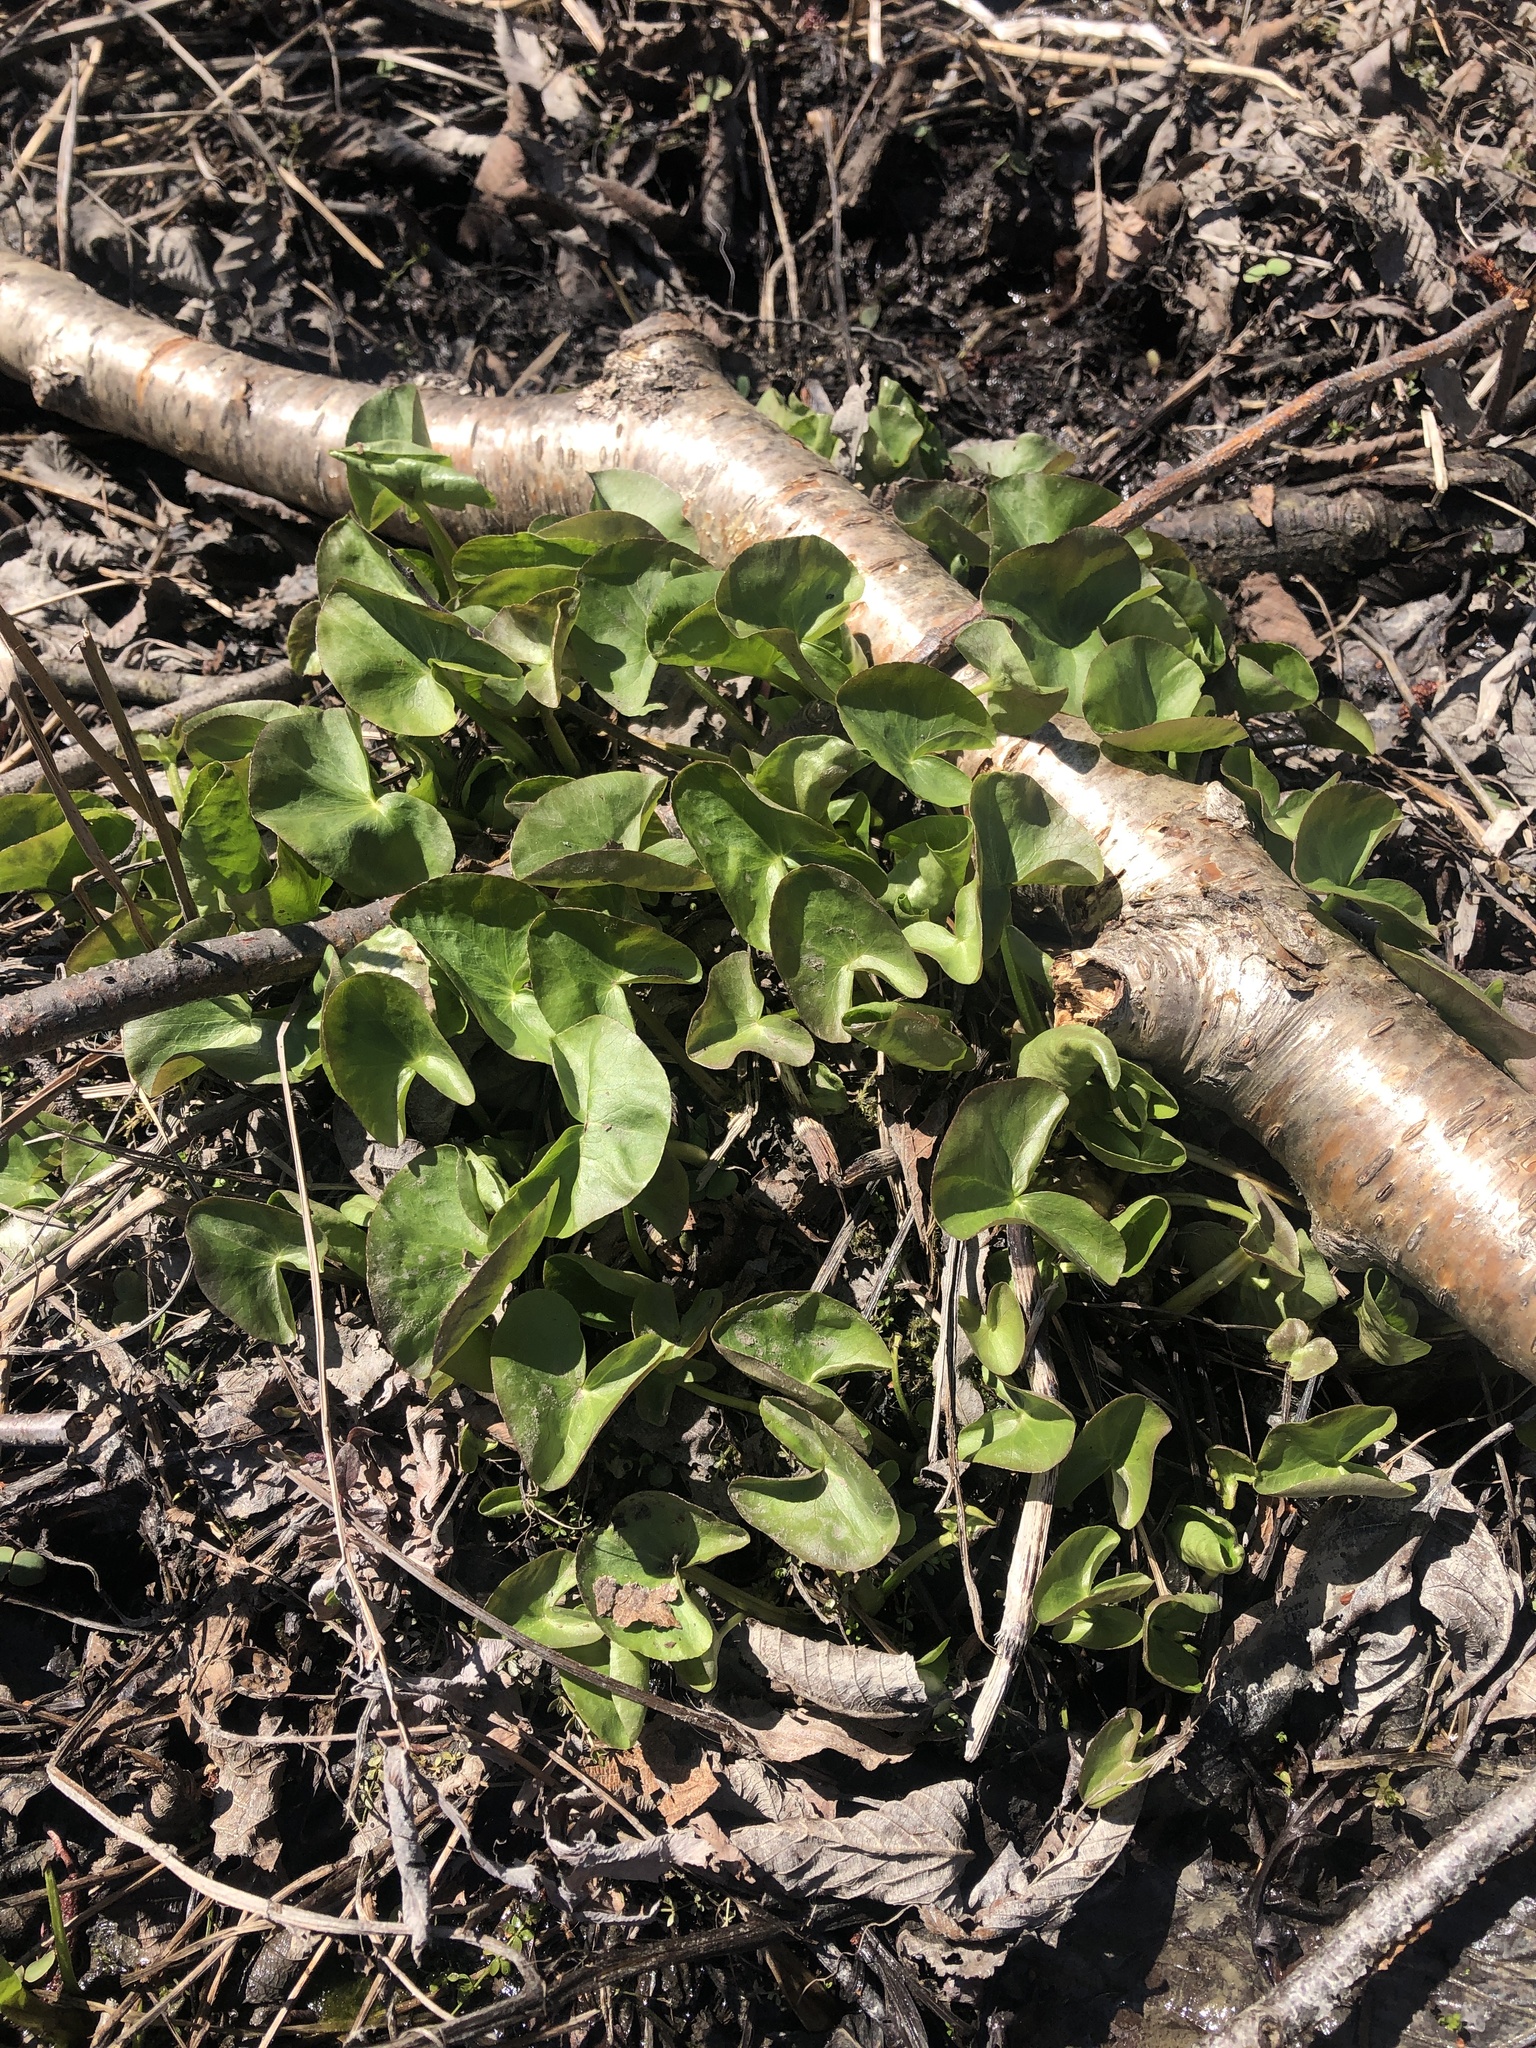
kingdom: Plantae
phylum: Tracheophyta
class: Magnoliopsida
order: Ranunculales
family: Ranunculaceae
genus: Caltha
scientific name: Caltha palustris
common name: Marsh marigold
